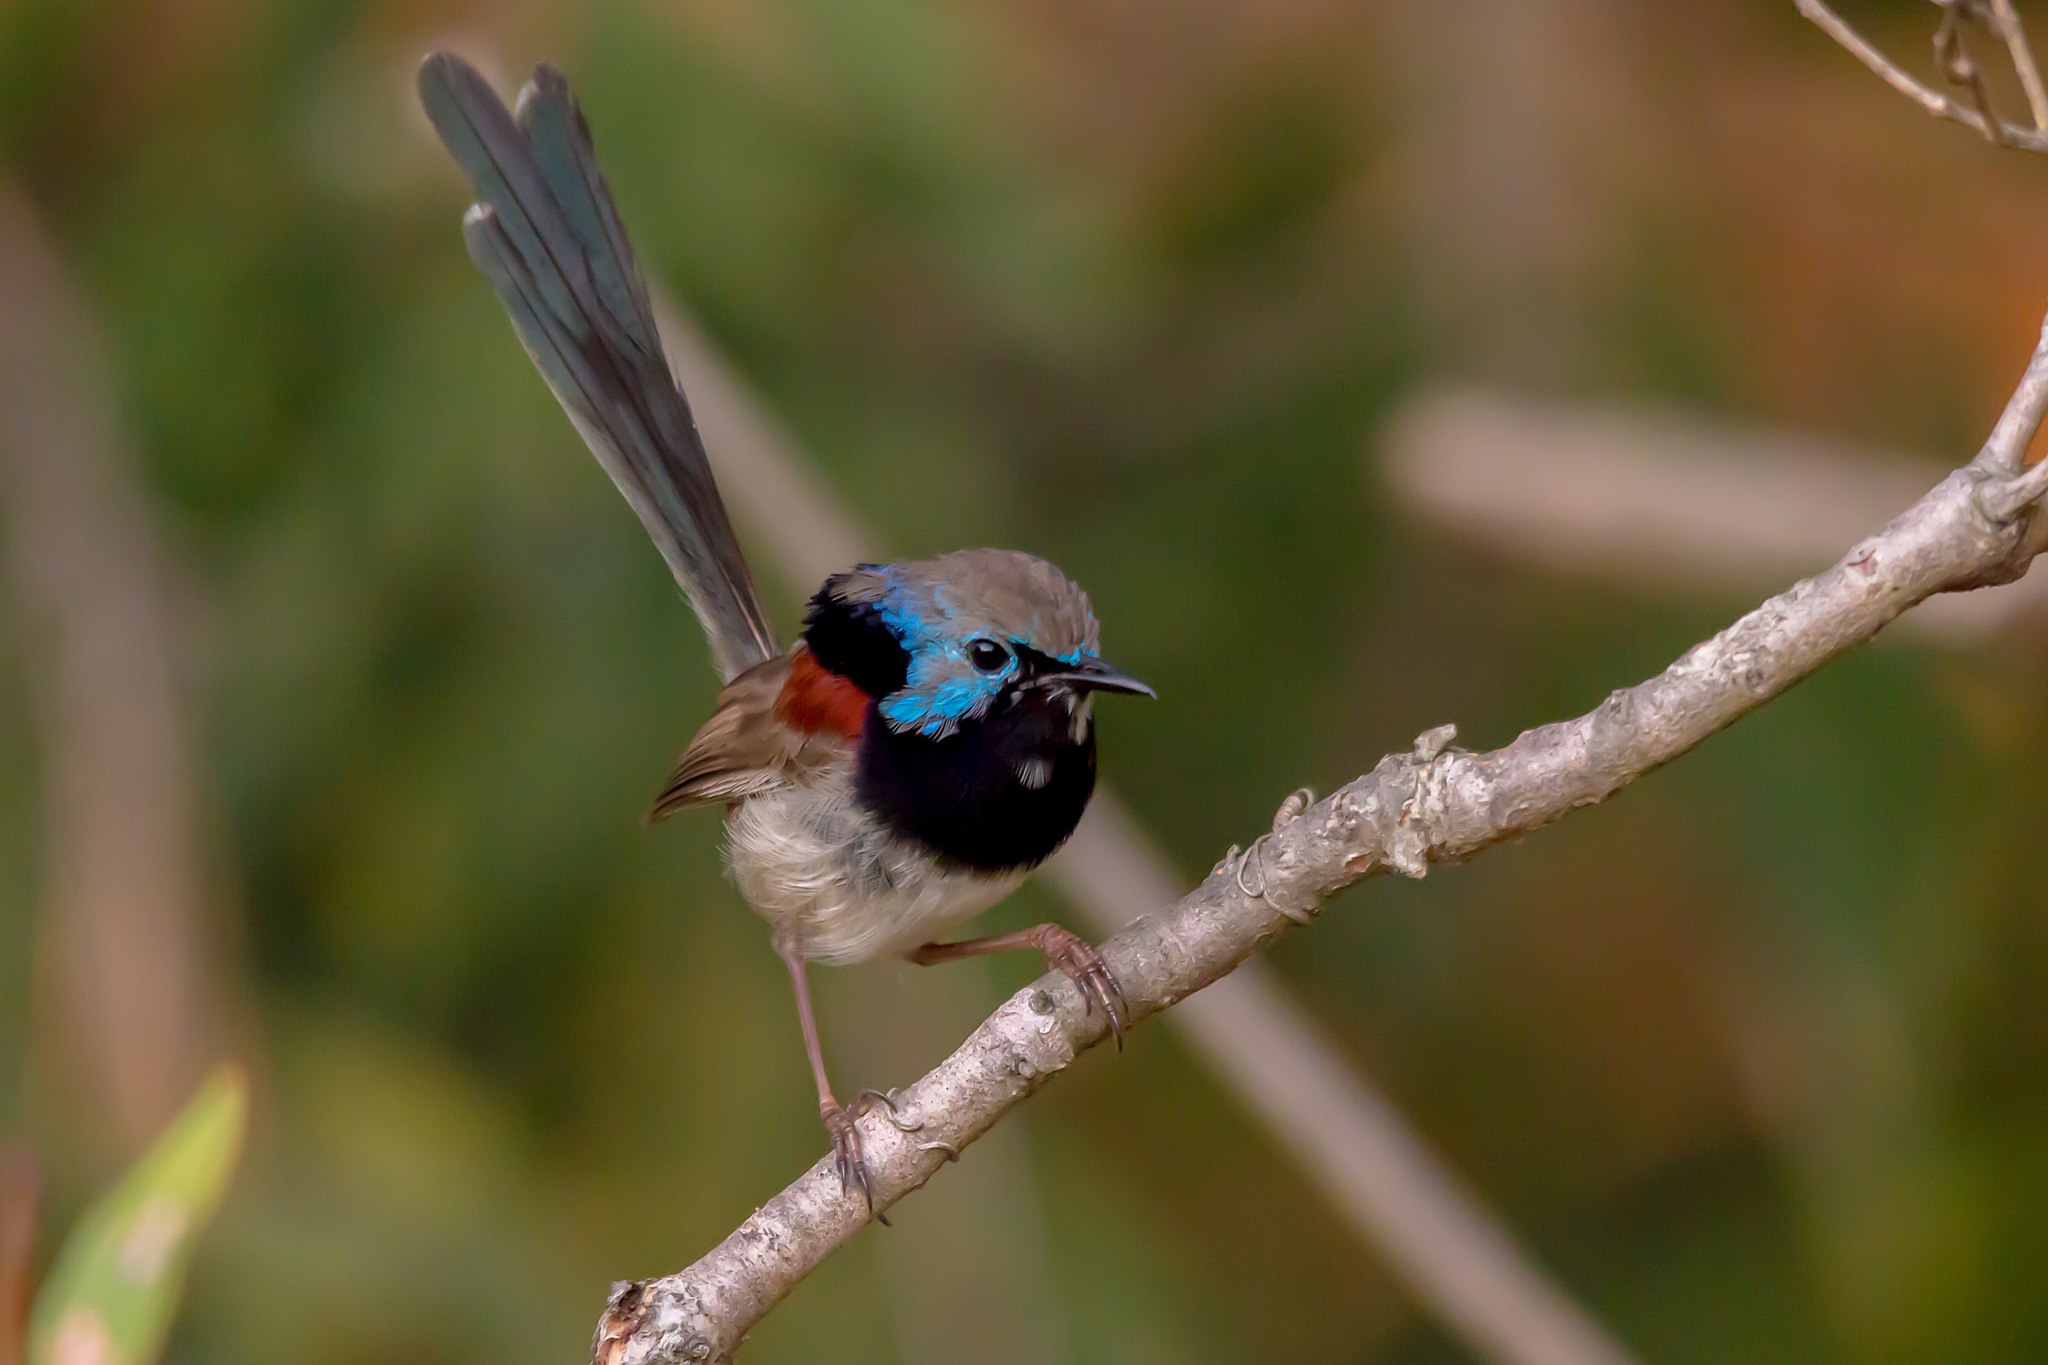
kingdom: Animalia
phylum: Chordata
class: Aves
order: Passeriformes
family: Maluridae
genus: Malurus
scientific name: Malurus lamberti
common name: Variegated fairywren
